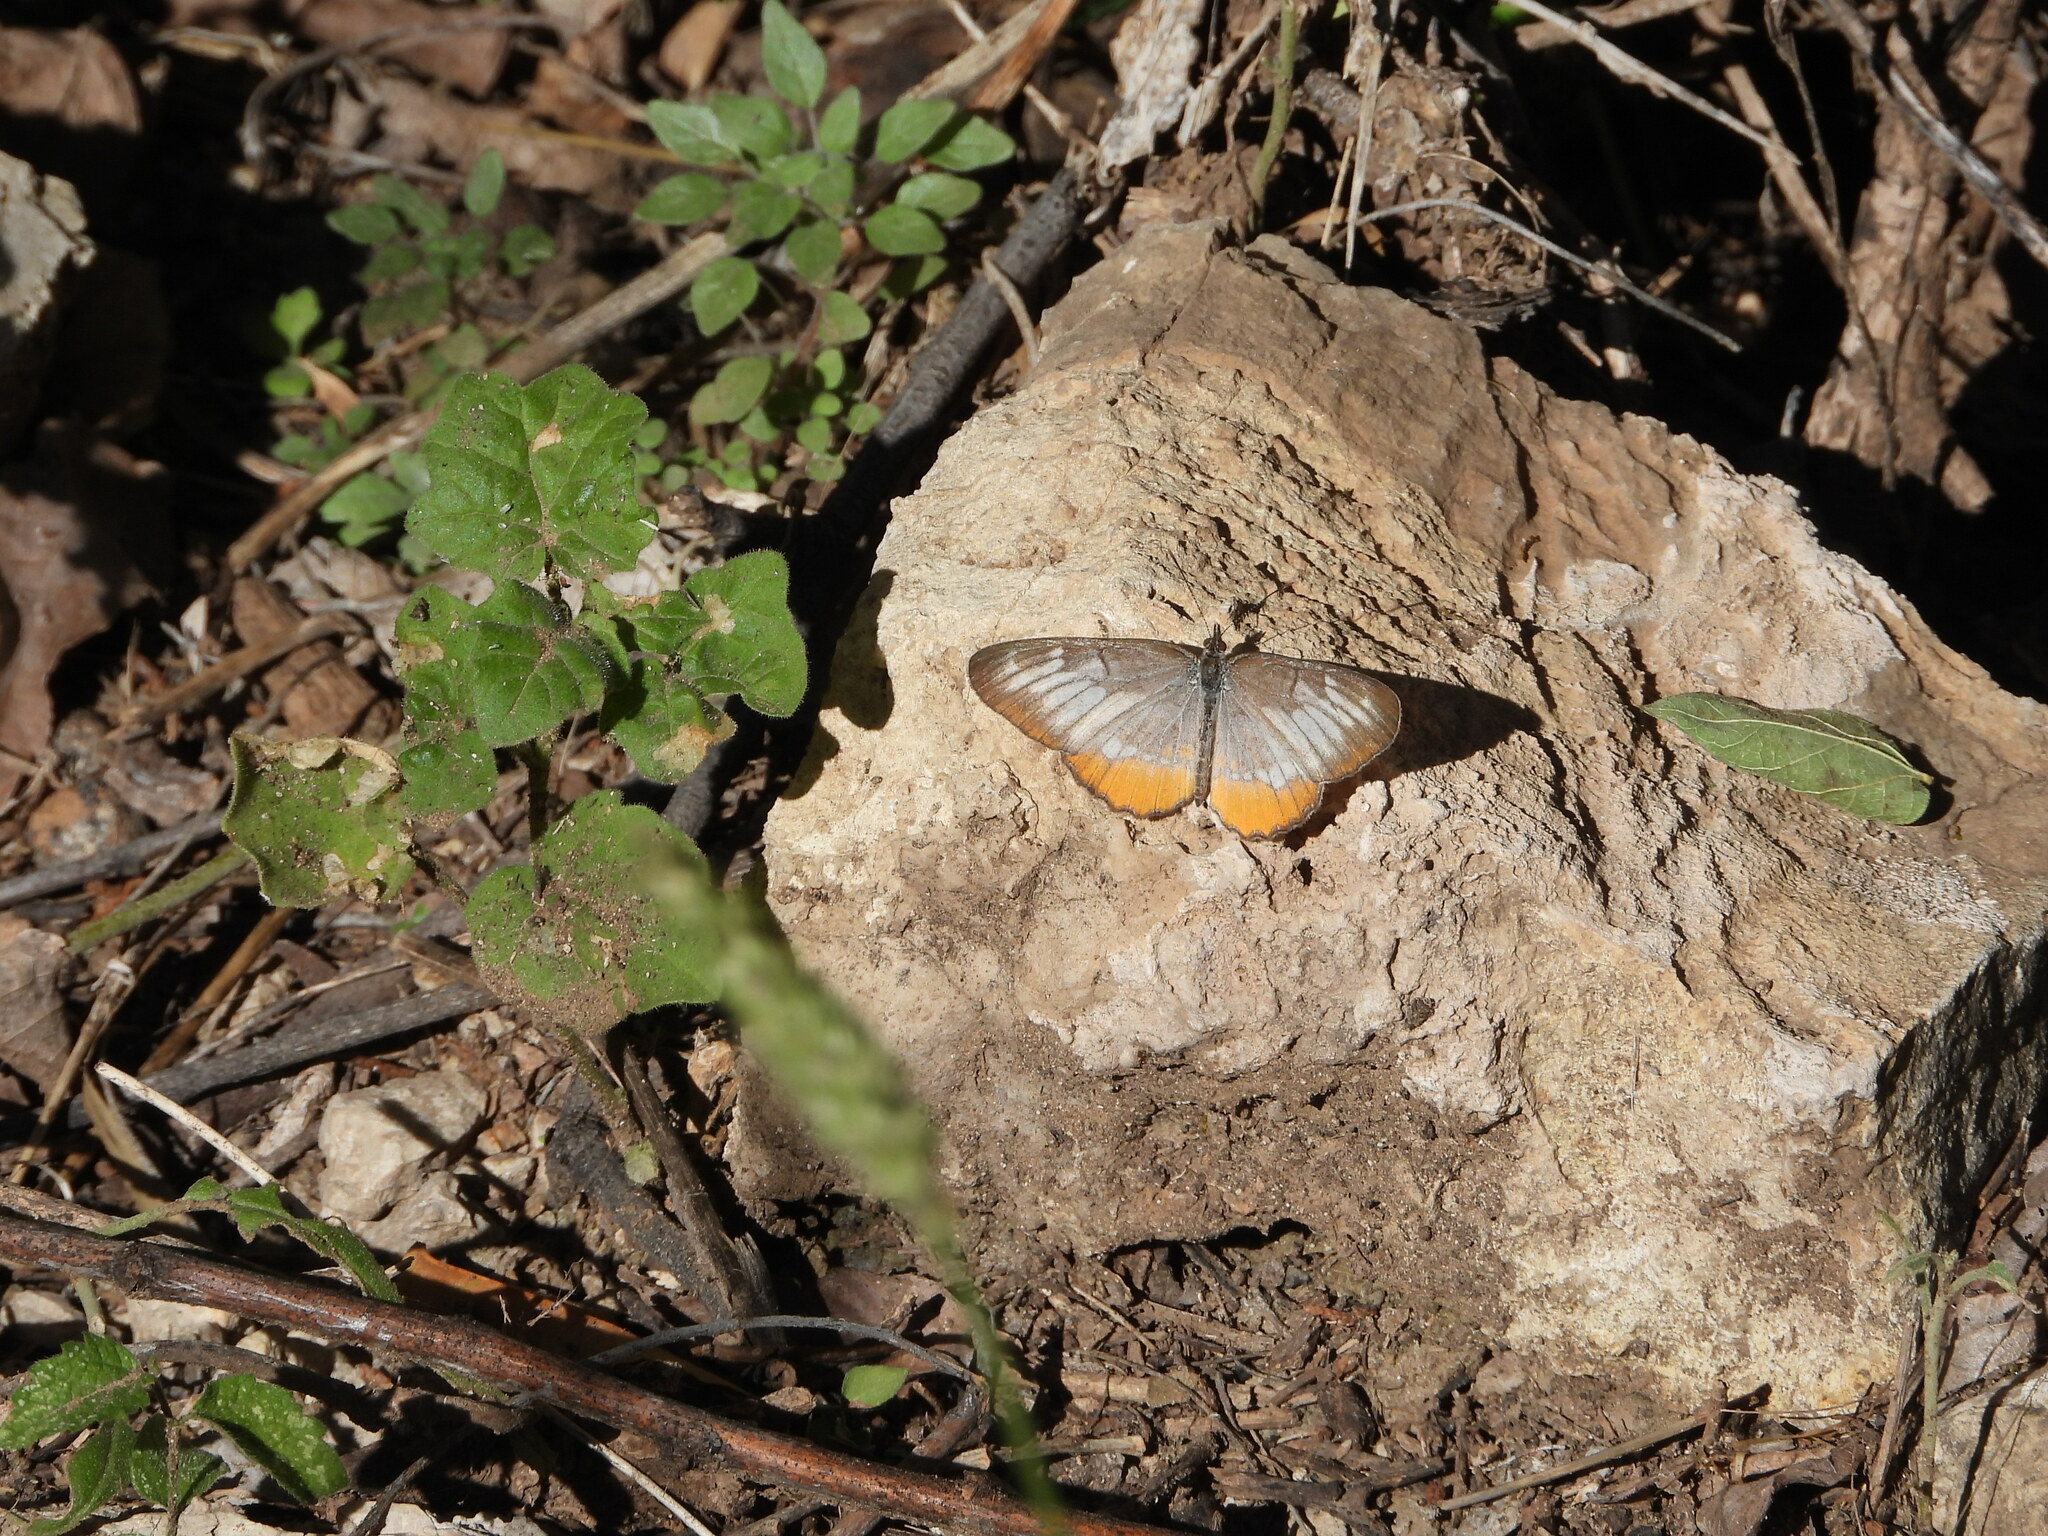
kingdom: Animalia
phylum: Arthropoda
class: Insecta
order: Lepidoptera
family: Nymphalidae
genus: Mestra
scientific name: Mestra amymone
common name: Common mestra
